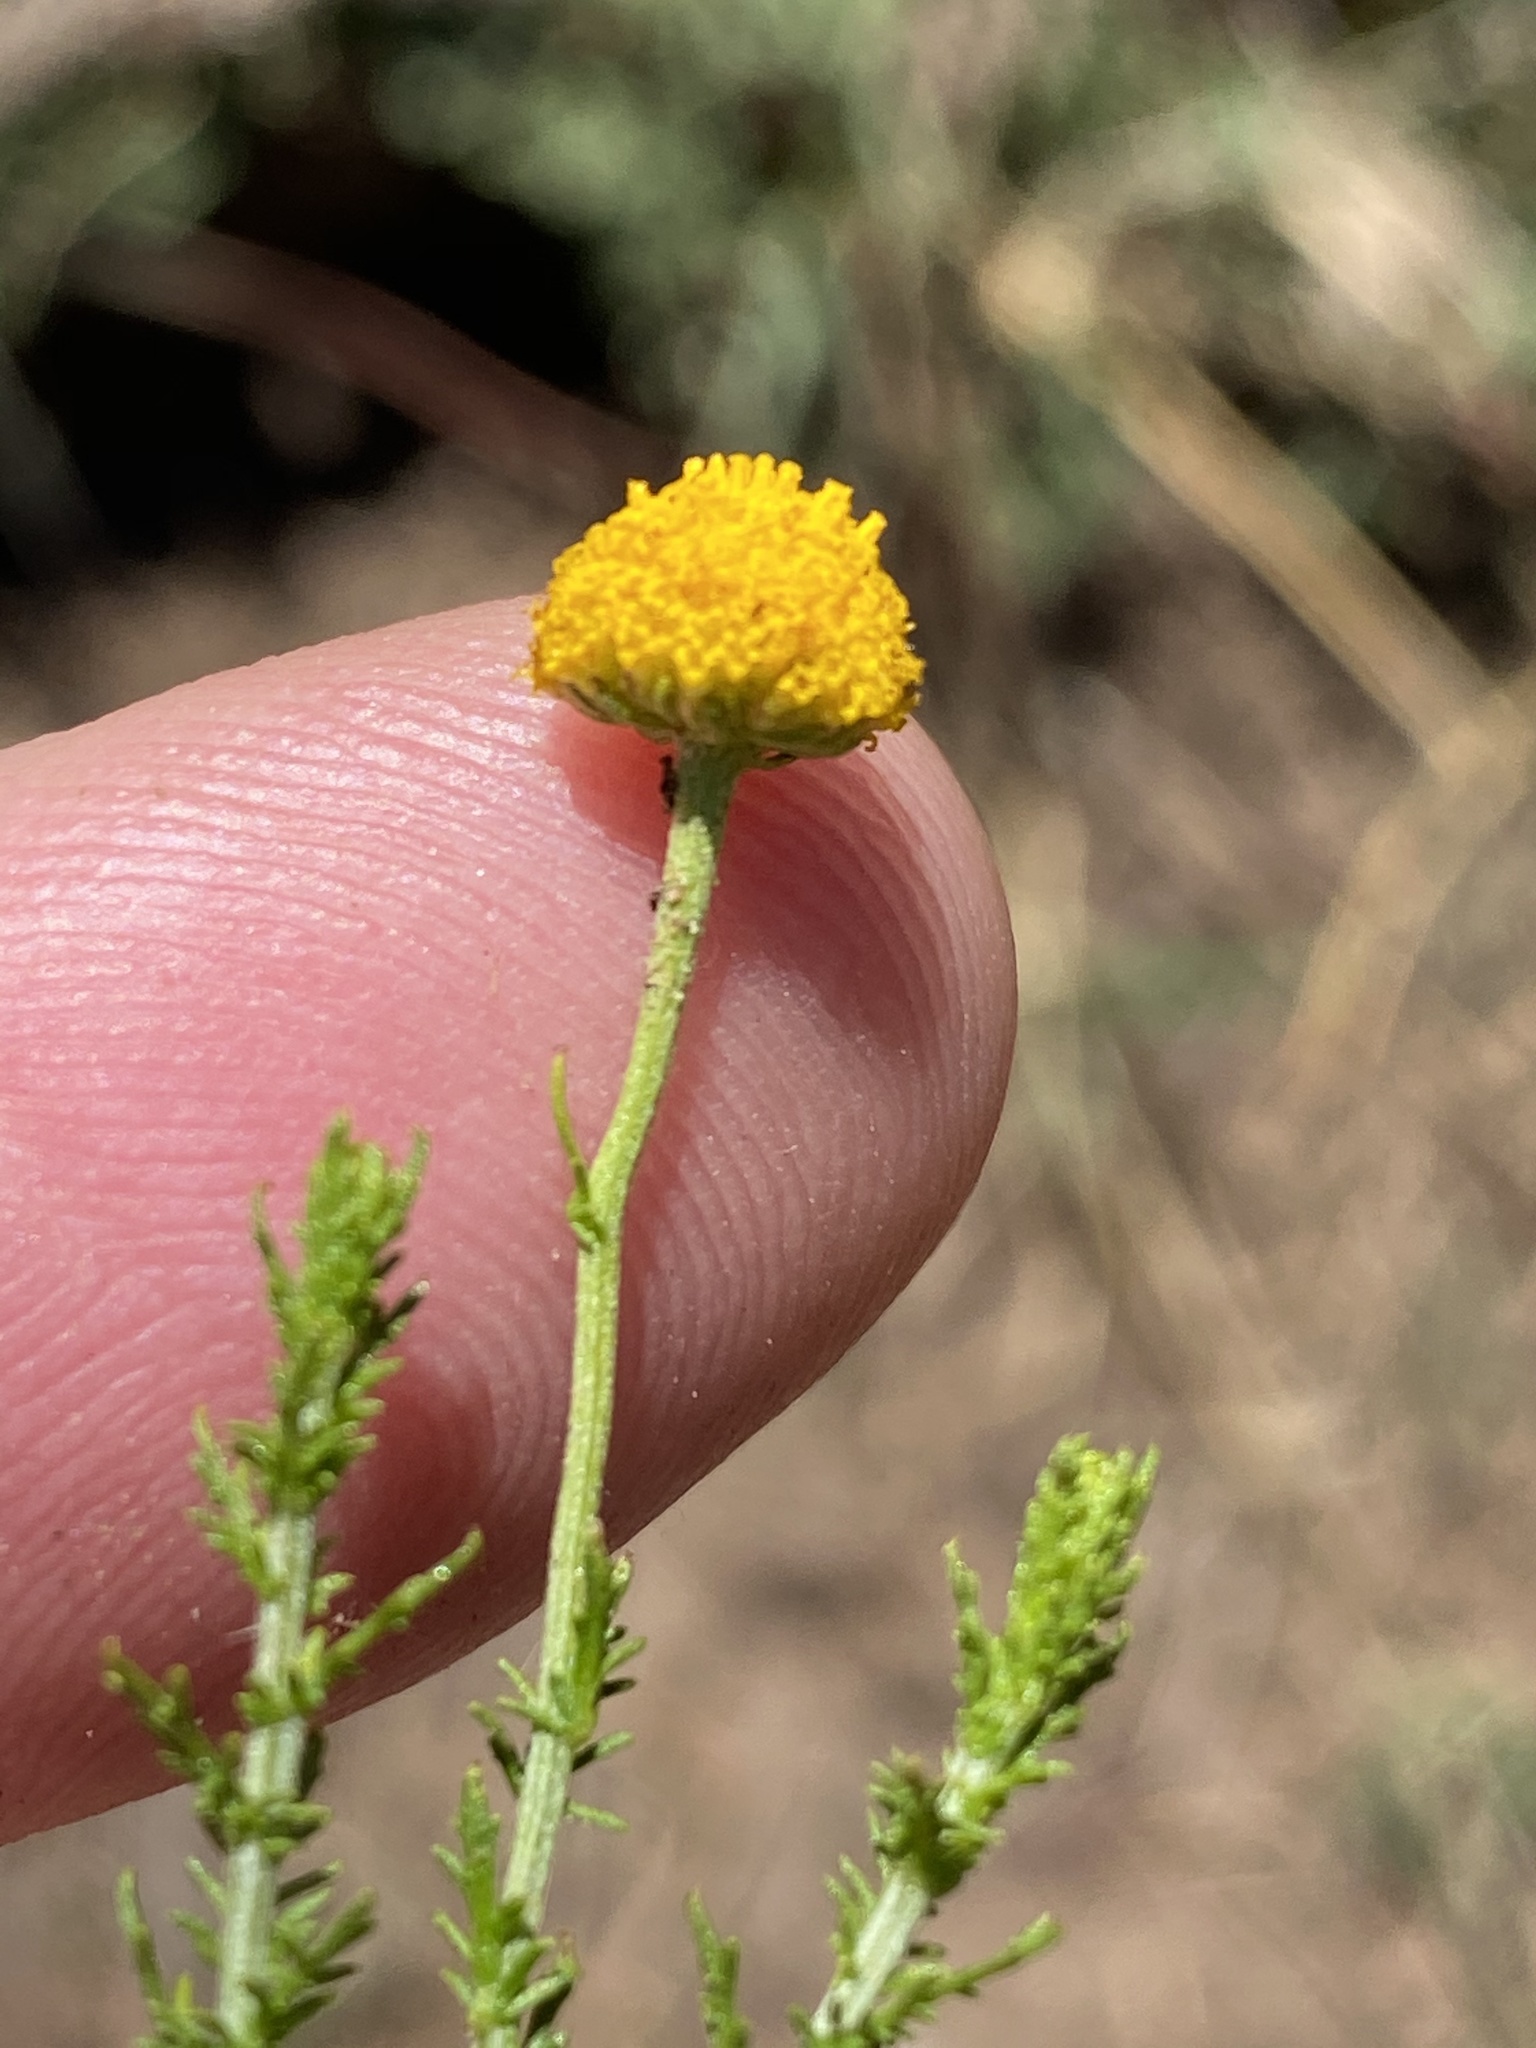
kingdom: Plantae
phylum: Tracheophyta
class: Magnoliopsida
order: Asterales
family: Asteraceae
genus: Oncosiphon
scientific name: Oncosiphon pilulifer
